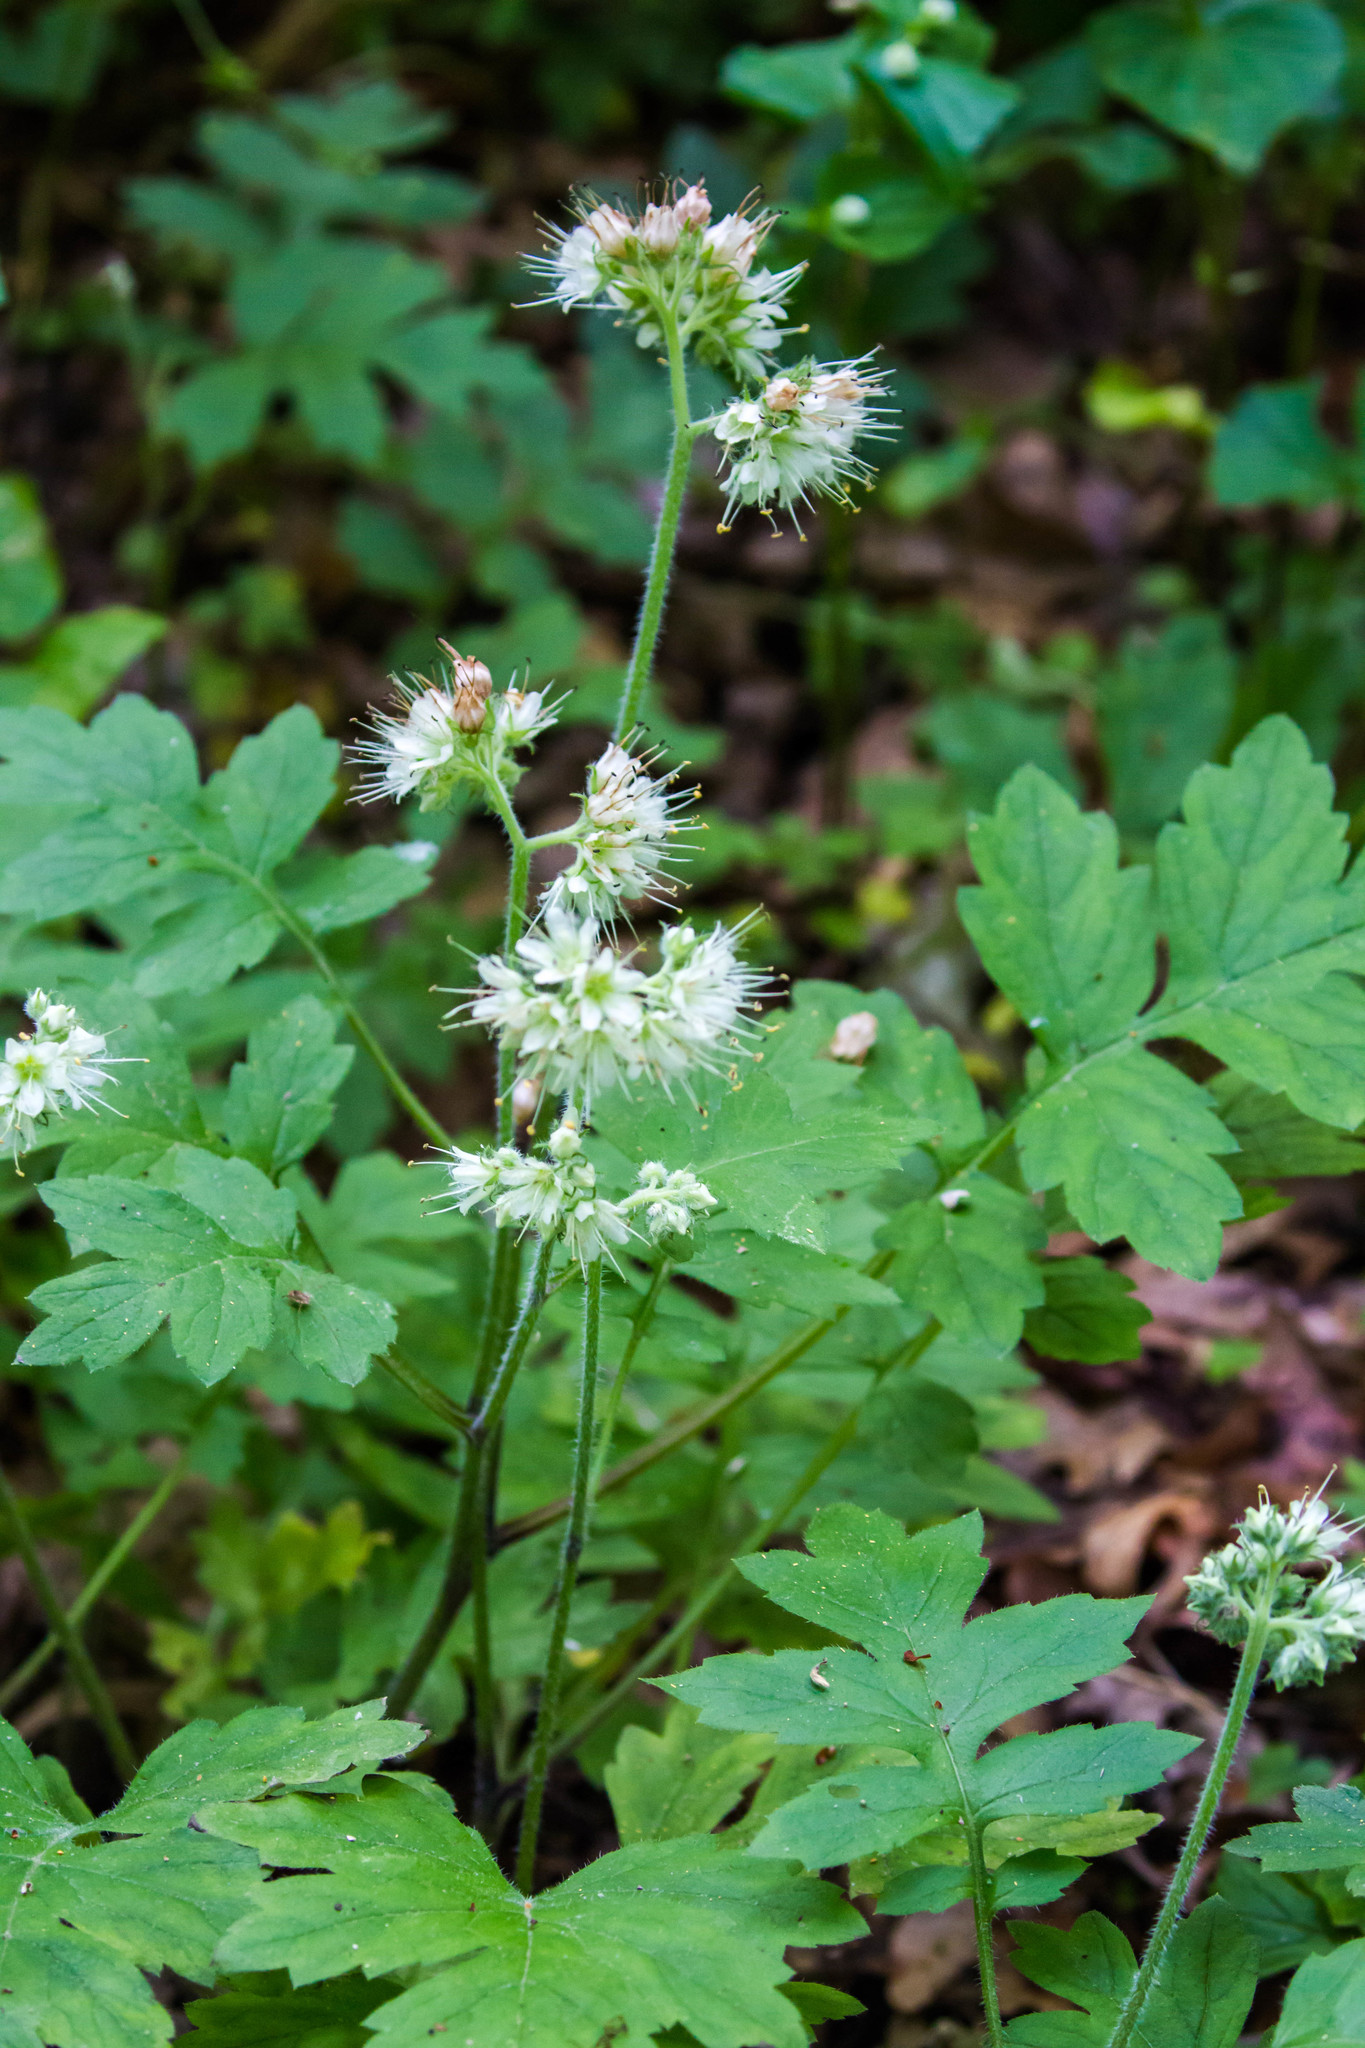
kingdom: Plantae
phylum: Tracheophyta
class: Magnoliopsida
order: Boraginales
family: Hydrophyllaceae
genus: Hydrophyllum
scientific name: Hydrophyllum macrophyllum
